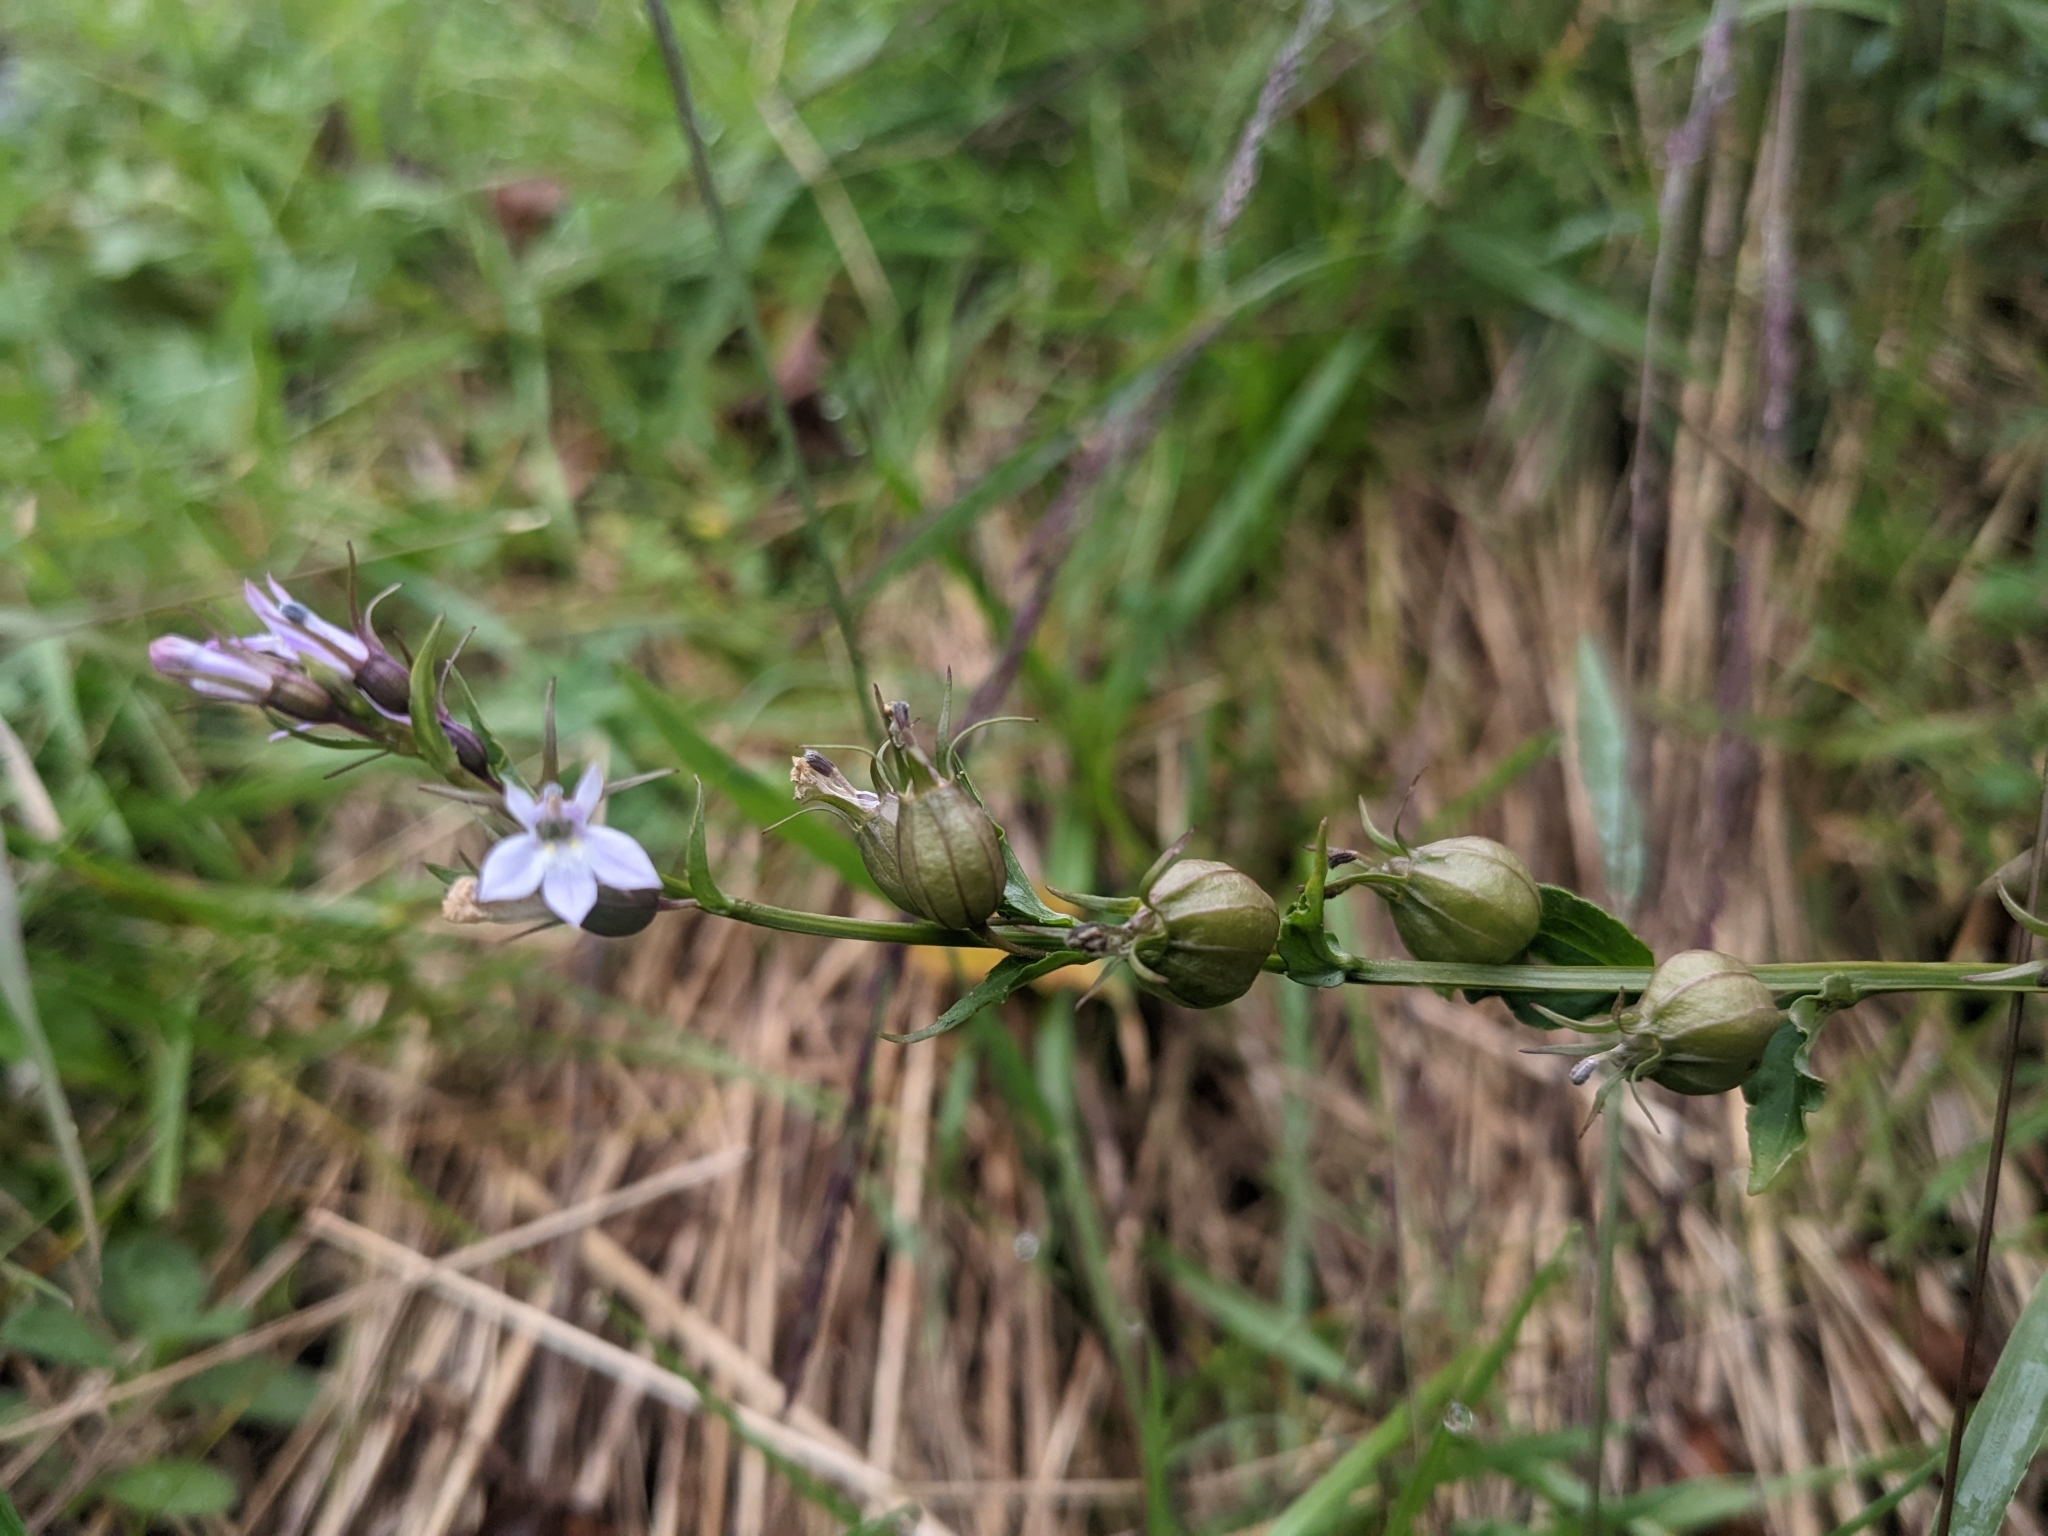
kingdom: Plantae
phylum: Tracheophyta
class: Magnoliopsida
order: Asterales
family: Campanulaceae
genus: Lobelia
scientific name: Lobelia inflata
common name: Indian tobacco
